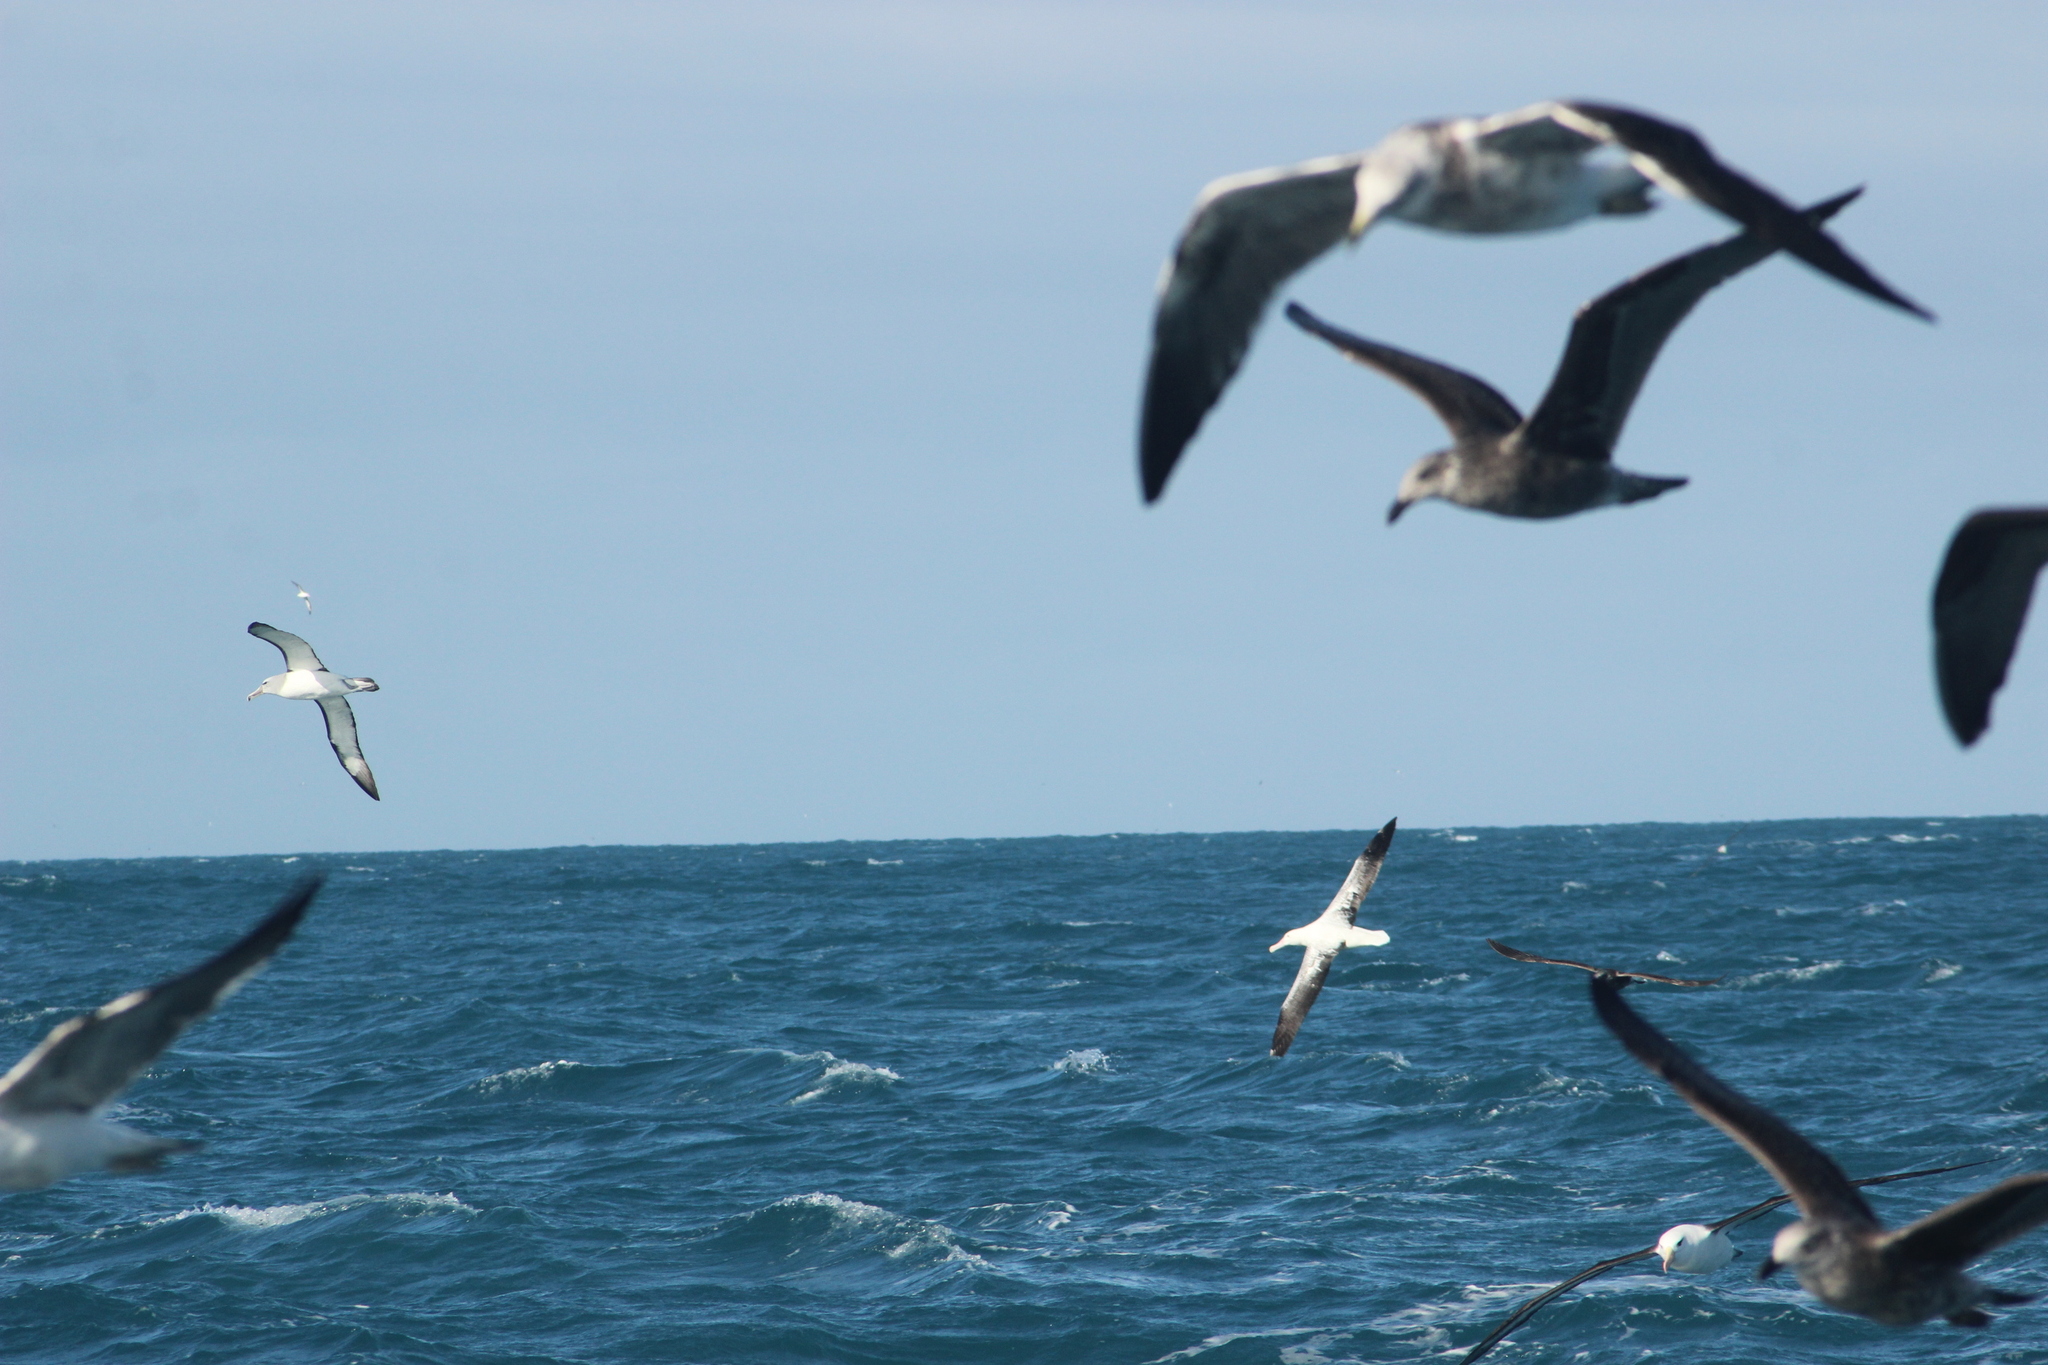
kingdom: Animalia
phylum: Chordata
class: Aves
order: Procellariiformes
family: Diomedeidae
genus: Diomedea
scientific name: Diomedea epomophora
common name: Southern royal albatross
